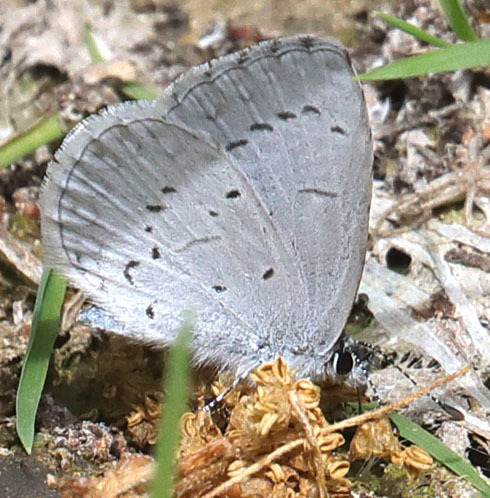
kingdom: Animalia
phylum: Arthropoda
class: Insecta
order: Lepidoptera
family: Lycaenidae
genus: Celastrina
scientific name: Celastrina ladon
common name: Spring azure
